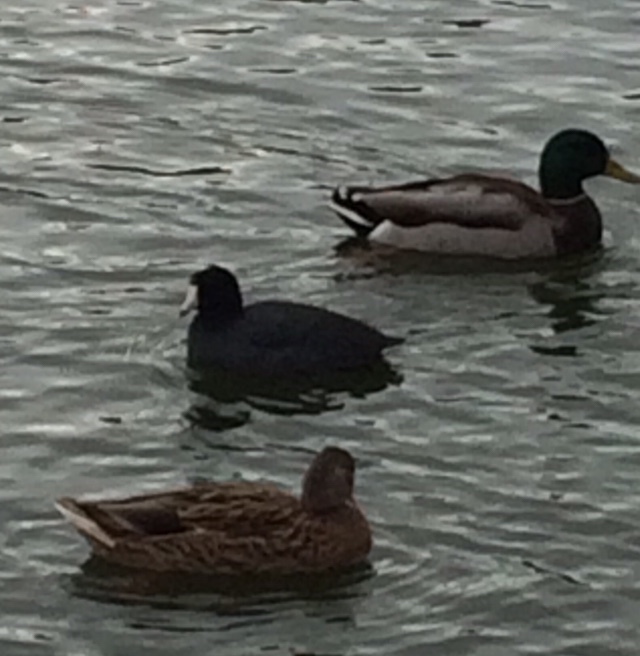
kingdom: Animalia
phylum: Chordata
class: Aves
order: Gruiformes
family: Rallidae
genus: Fulica
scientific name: Fulica americana
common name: American coot
